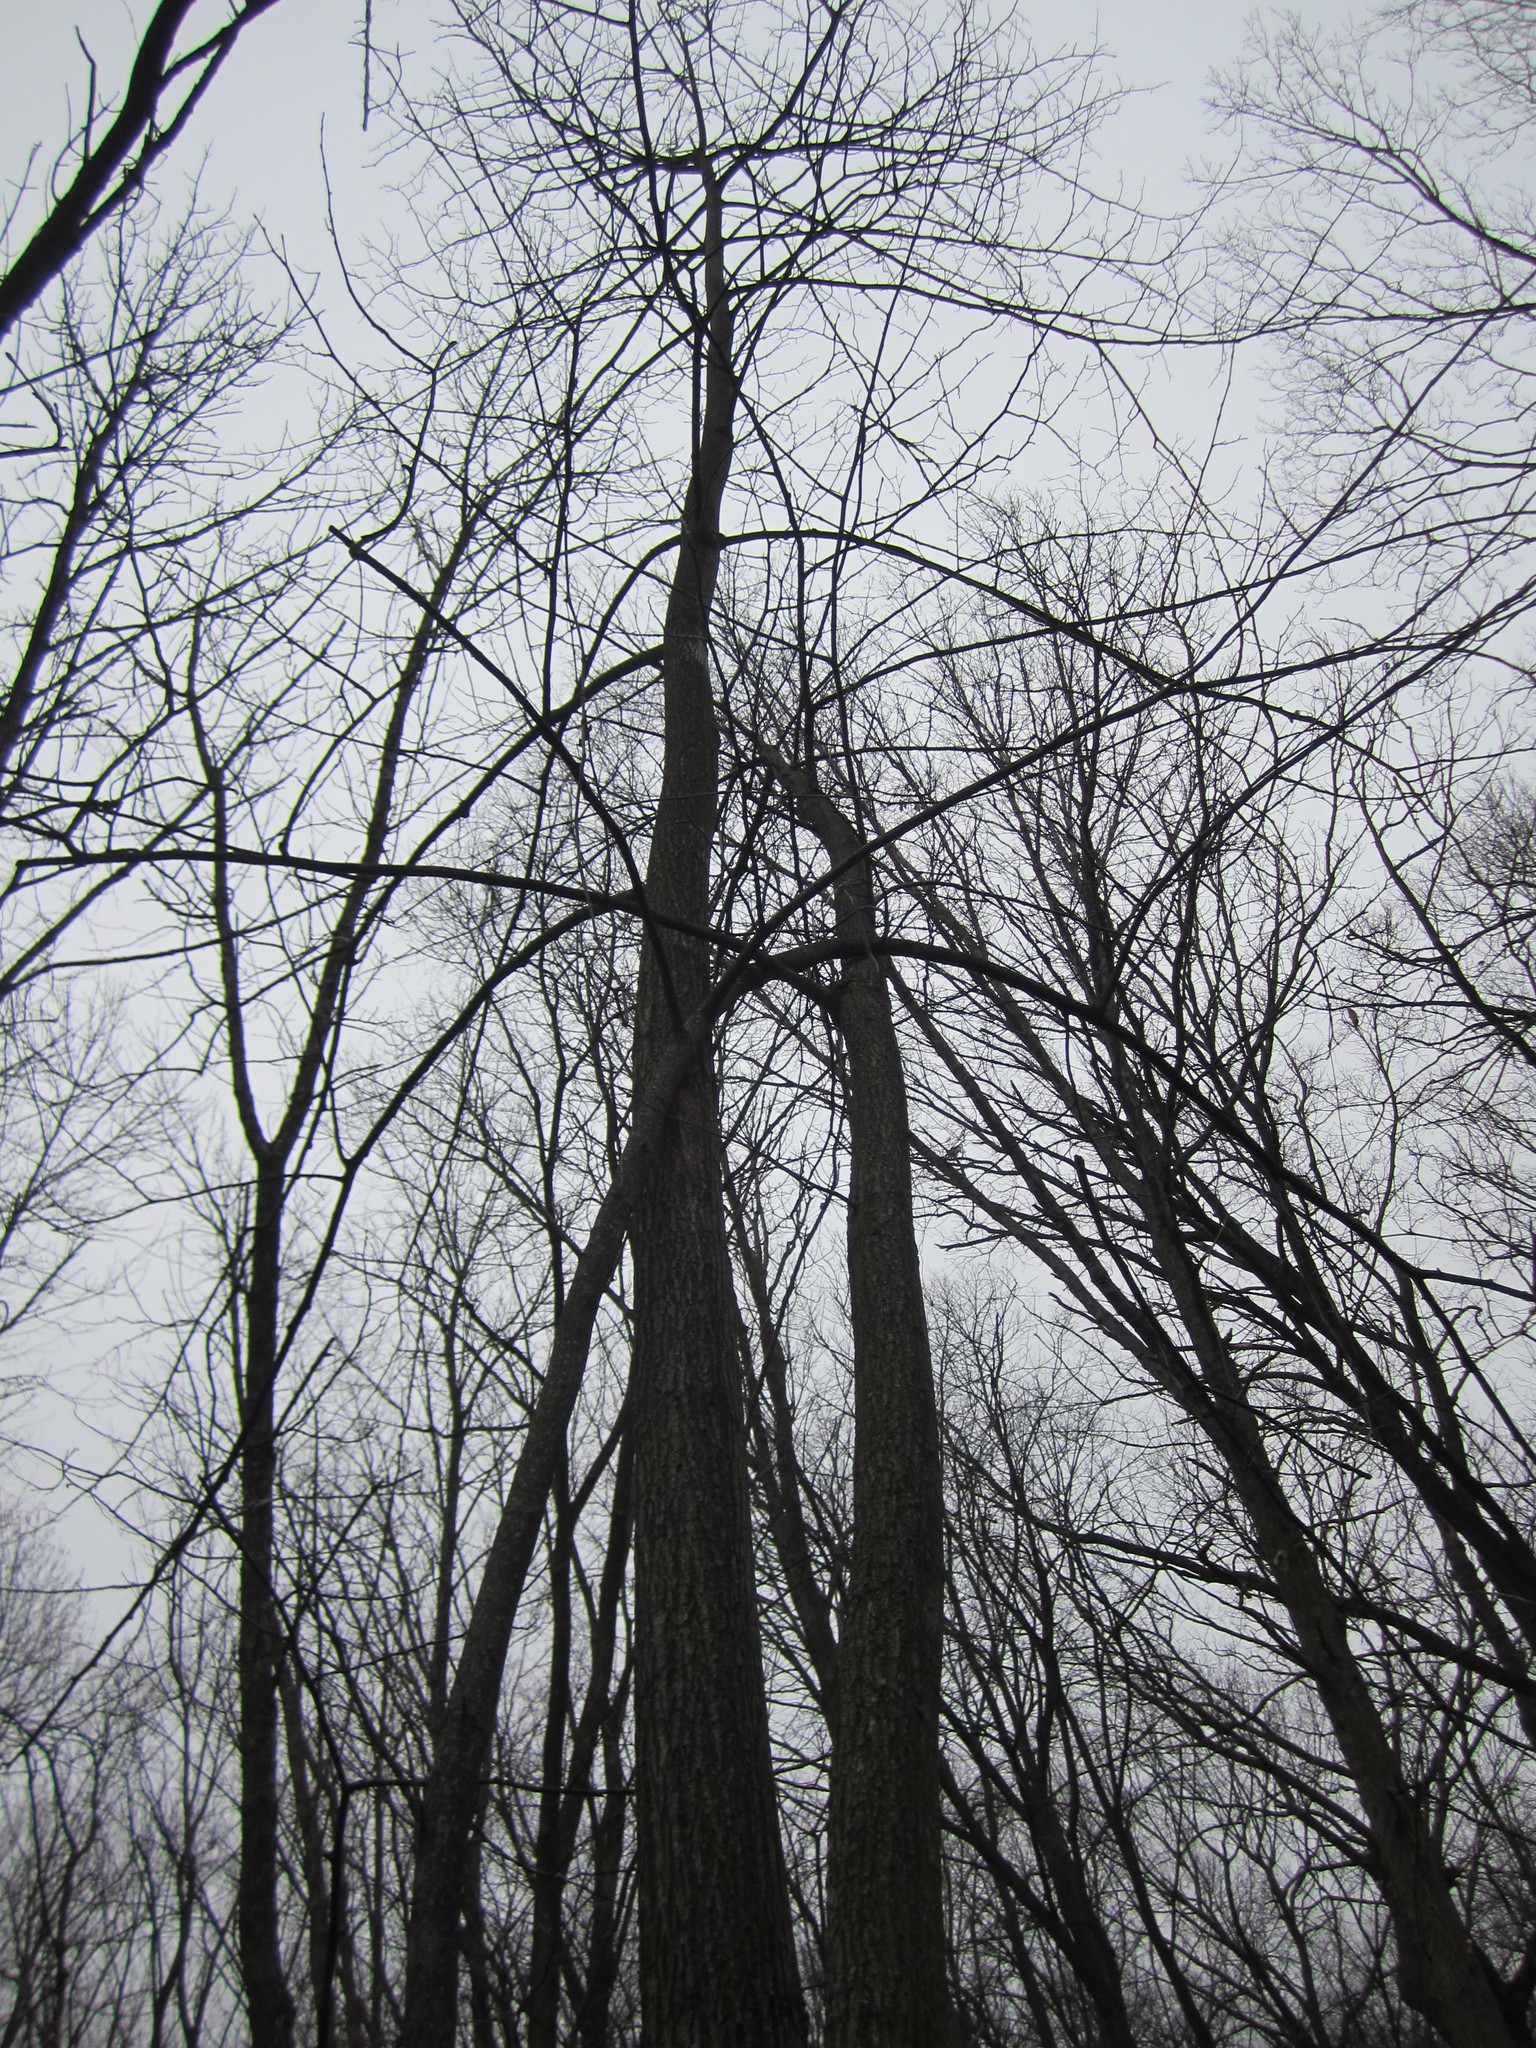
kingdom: Plantae
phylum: Tracheophyta
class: Magnoliopsida
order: Malvales
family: Malvaceae
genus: Tilia
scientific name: Tilia americana
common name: Basswood
